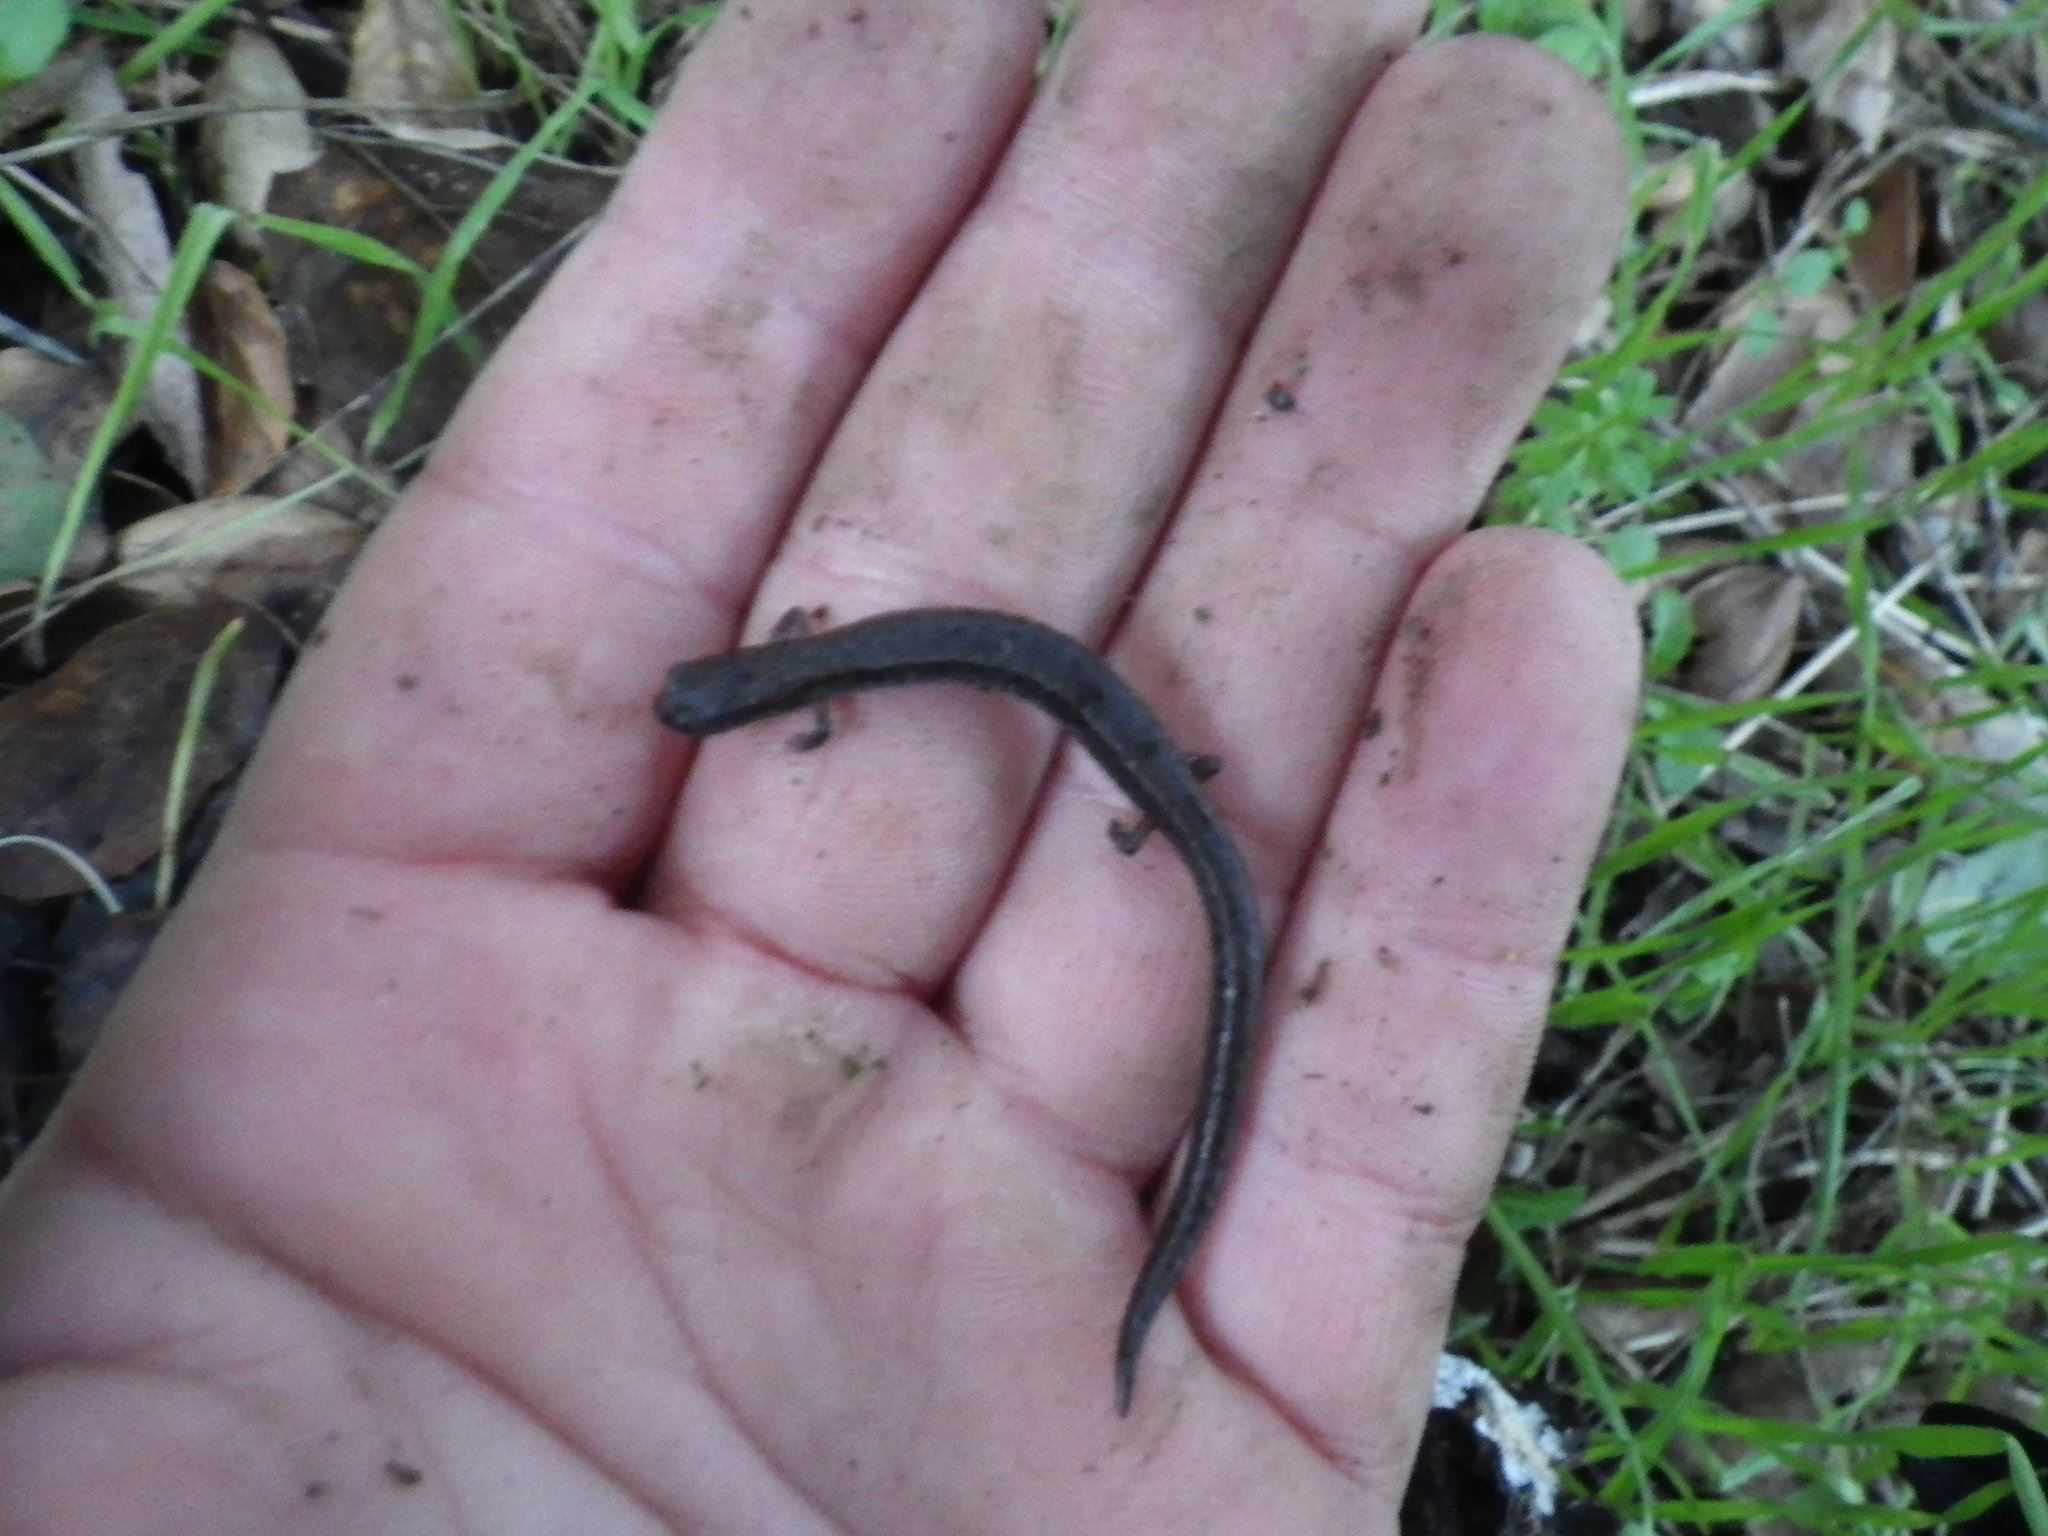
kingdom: Animalia
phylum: Chordata
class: Amphibia
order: Caudata
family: Plethodontidae
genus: Batrachoseps
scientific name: Batrachoseps attenuatus
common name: California slender salamander
